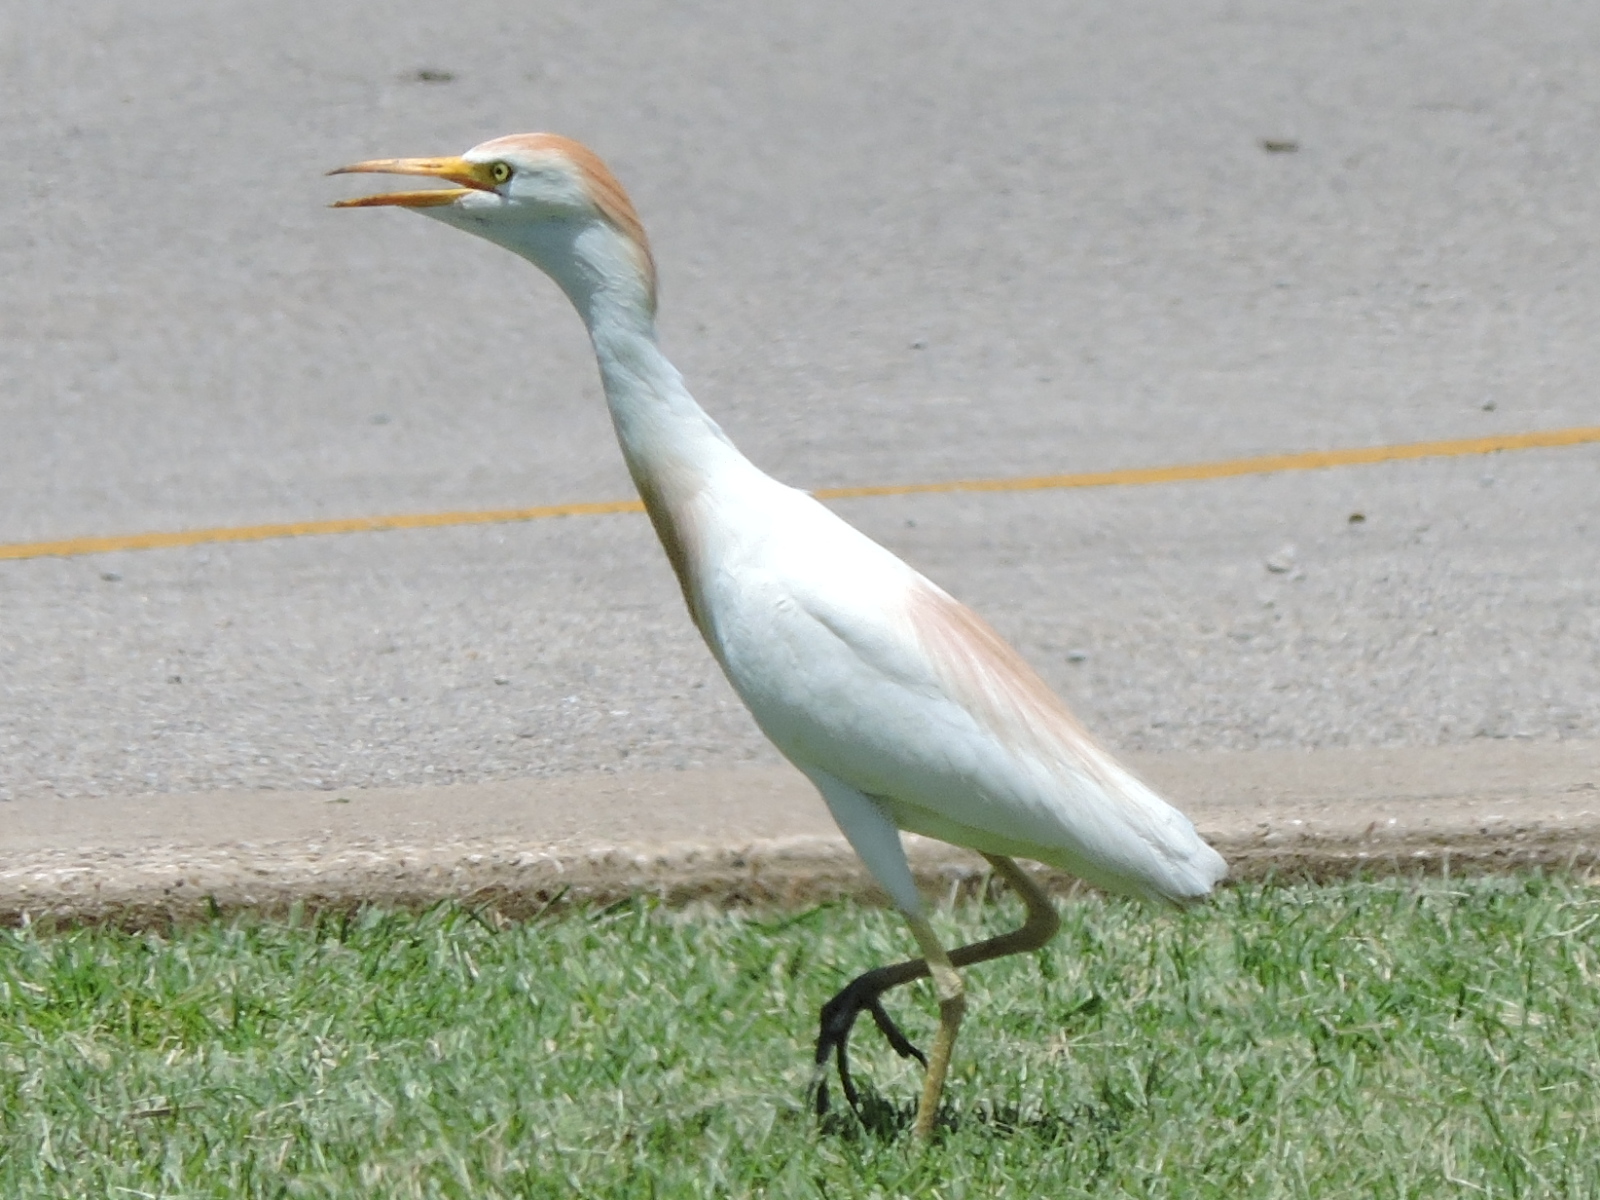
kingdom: Animalia
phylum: Chordata
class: Aves
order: Pelecaniformes
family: Ardeidae
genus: Bubulcus
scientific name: Bubulcus ibis
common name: Cattle egret
